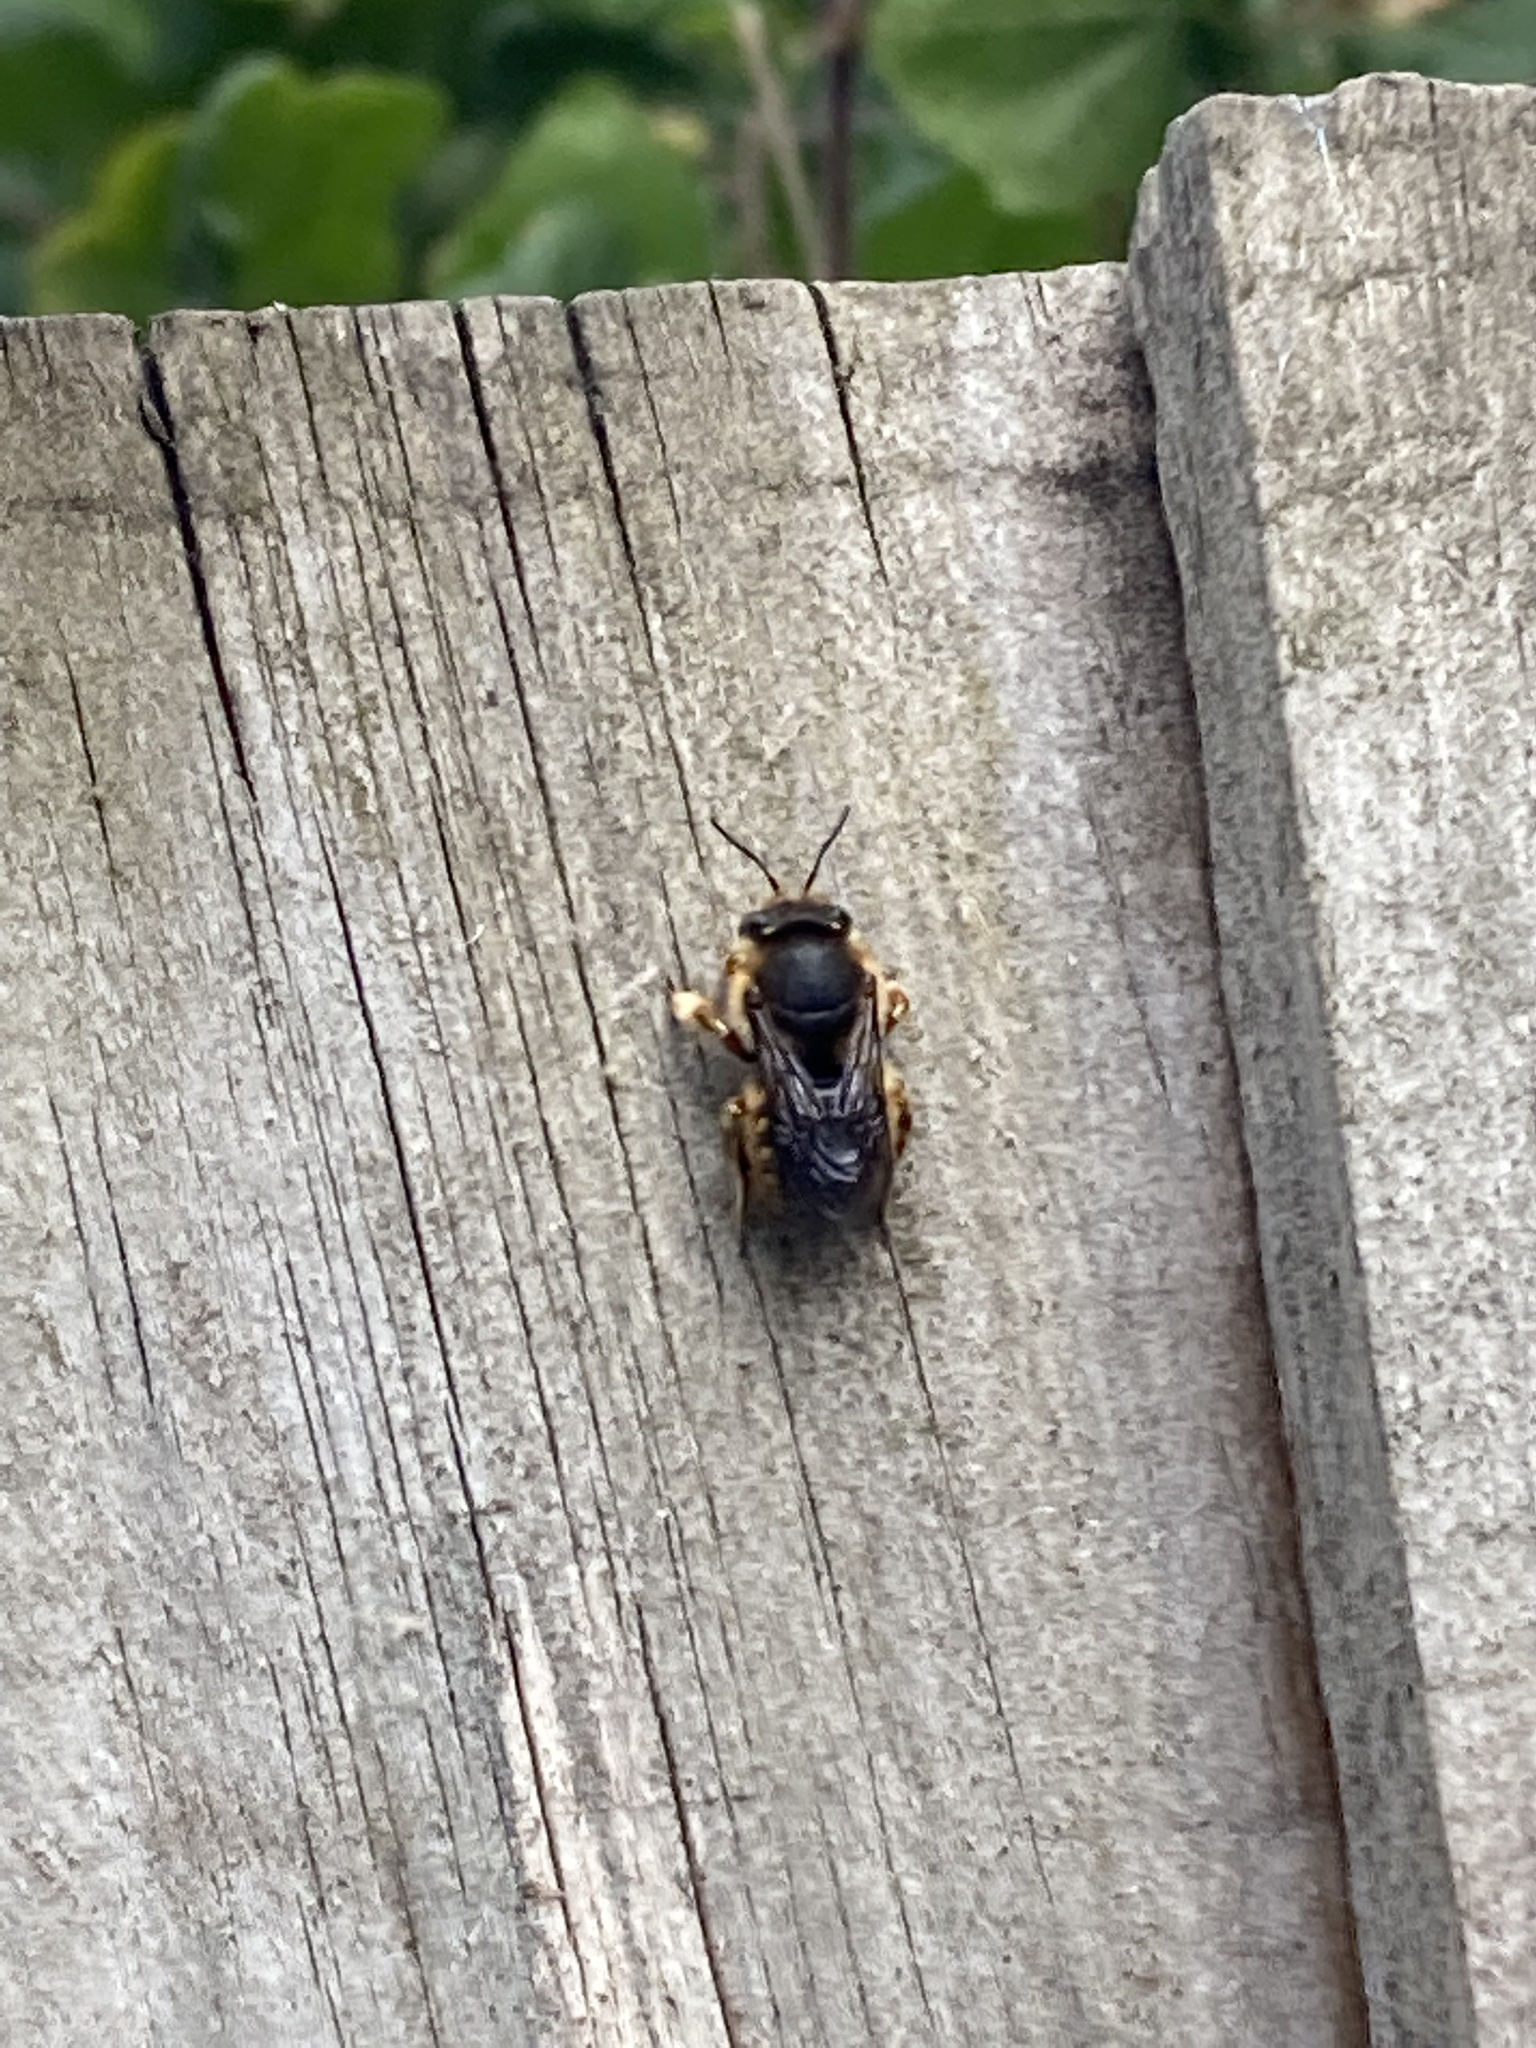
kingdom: Animalia
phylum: Arthropoda
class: Insecta
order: Hymenoptera
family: Megachilidae
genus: Anthidium
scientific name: Anthidium manicatum
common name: Wool carder bee
